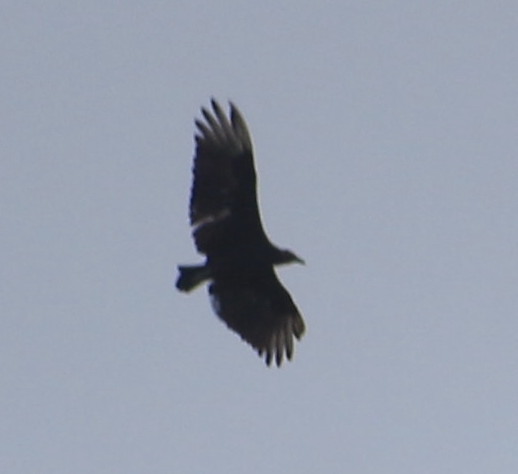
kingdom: Animalia
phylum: Chordata
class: Aves
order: Accipitriformes
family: Cathartidae
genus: Coragyps
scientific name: Coragyps atratus
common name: Black vulture
